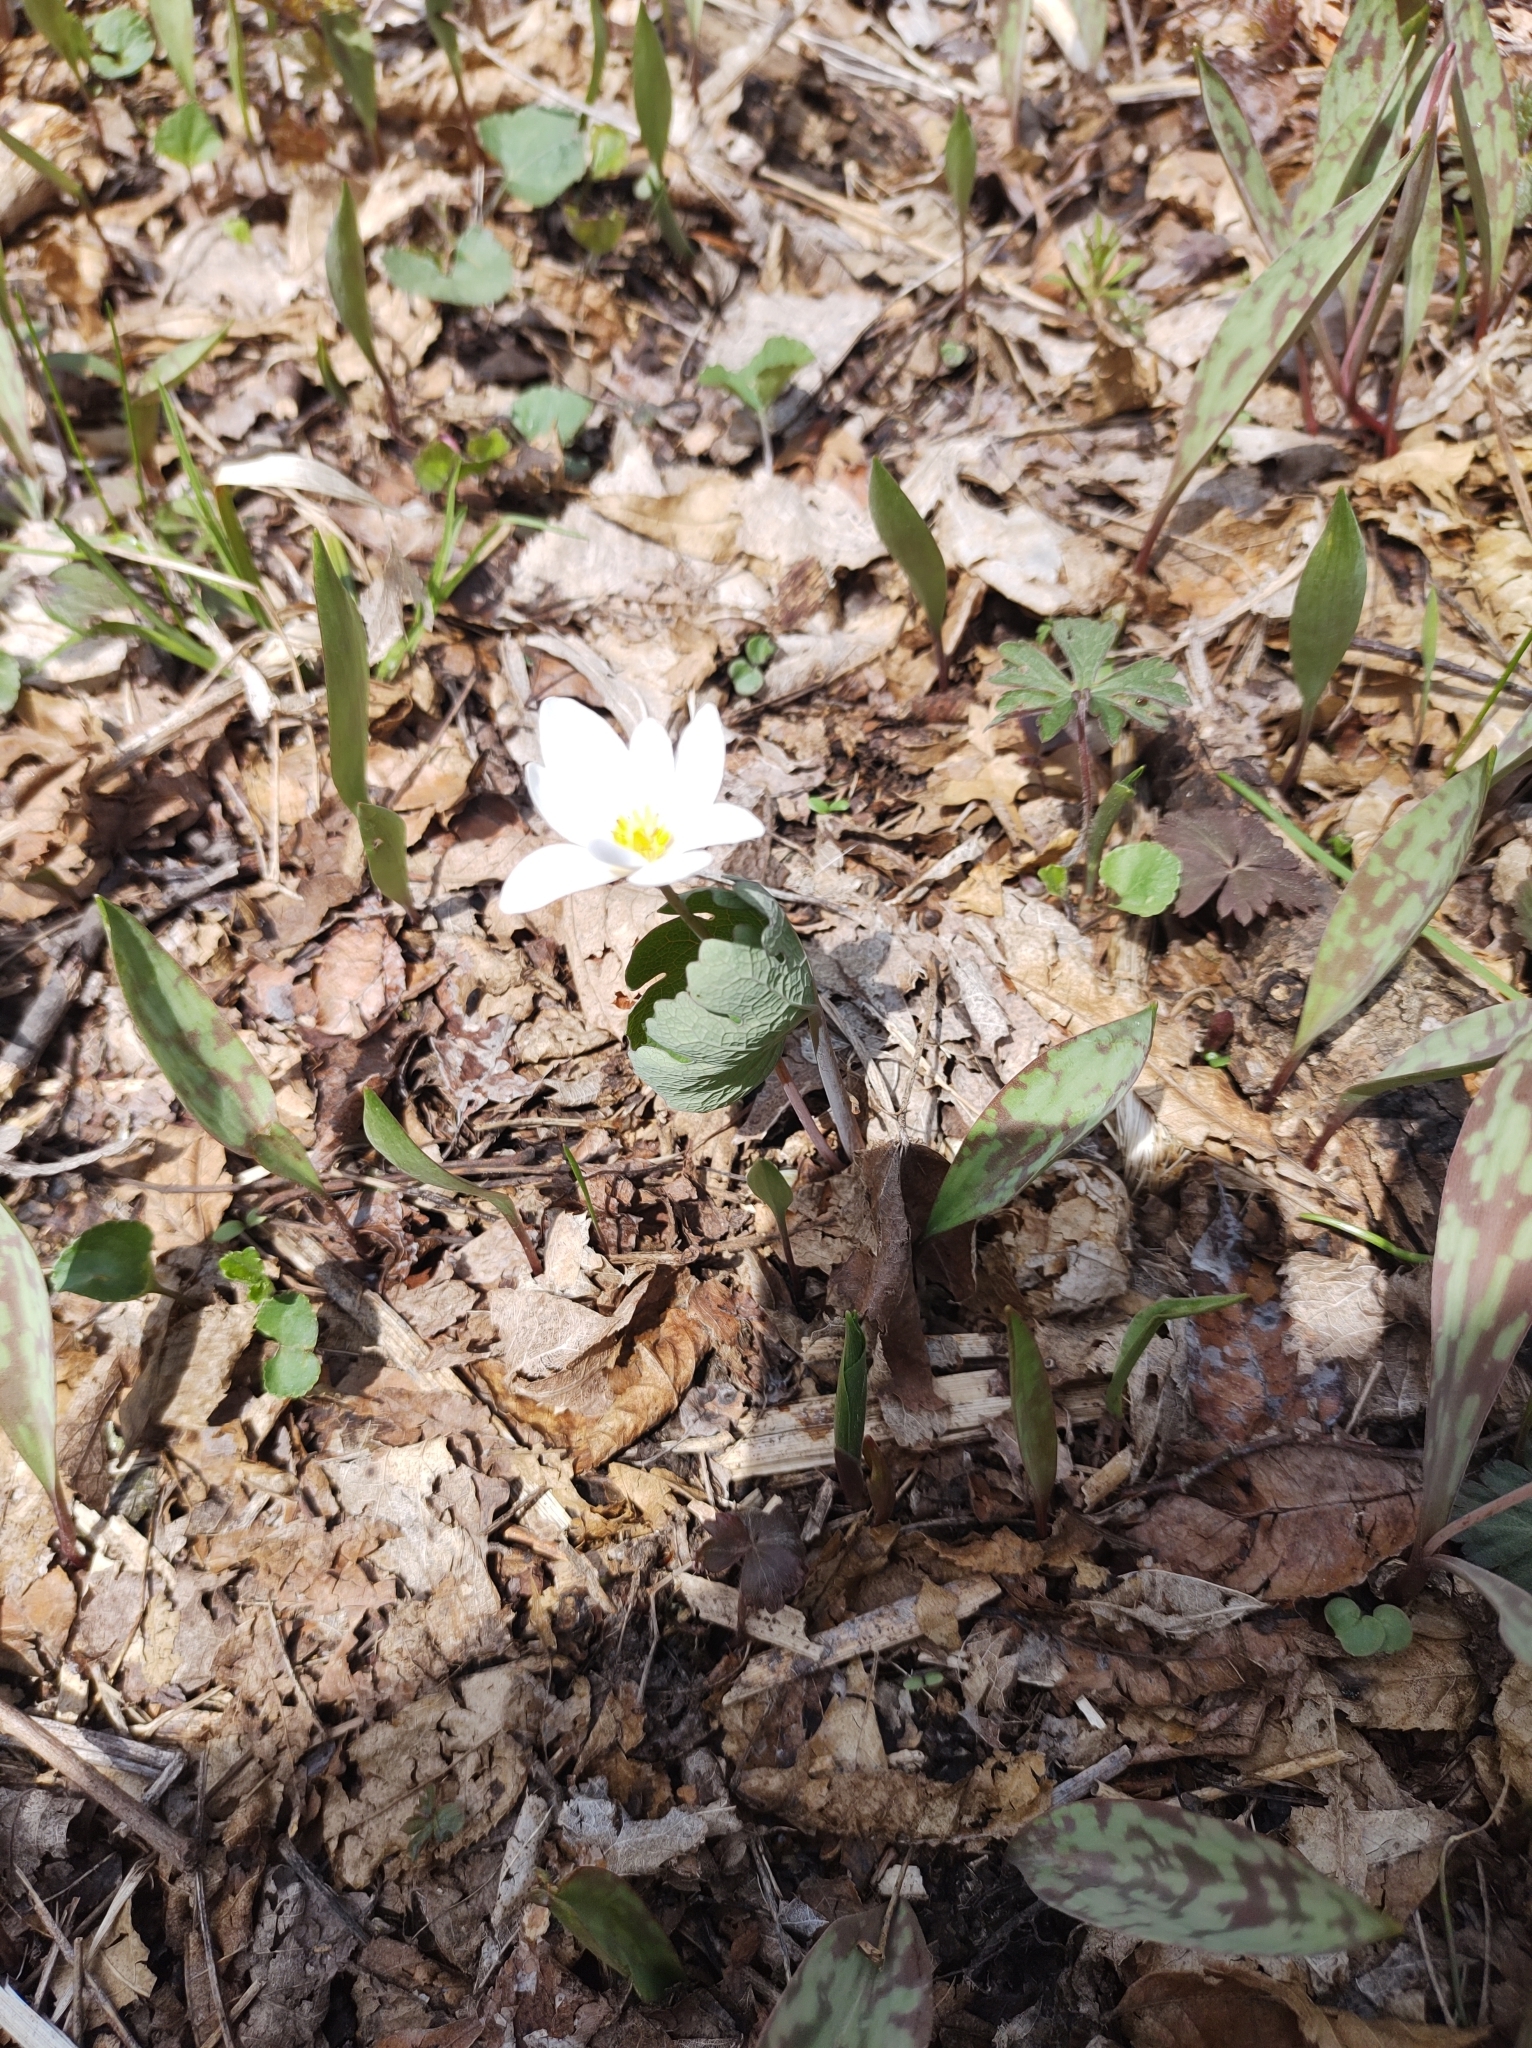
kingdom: Plantae
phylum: Tracheophyta
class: Magnoliopsida
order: Ranunculales
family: Papaveraceae
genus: Sanguinaria
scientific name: Sanguinaria canadensis
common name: Bloodroot
